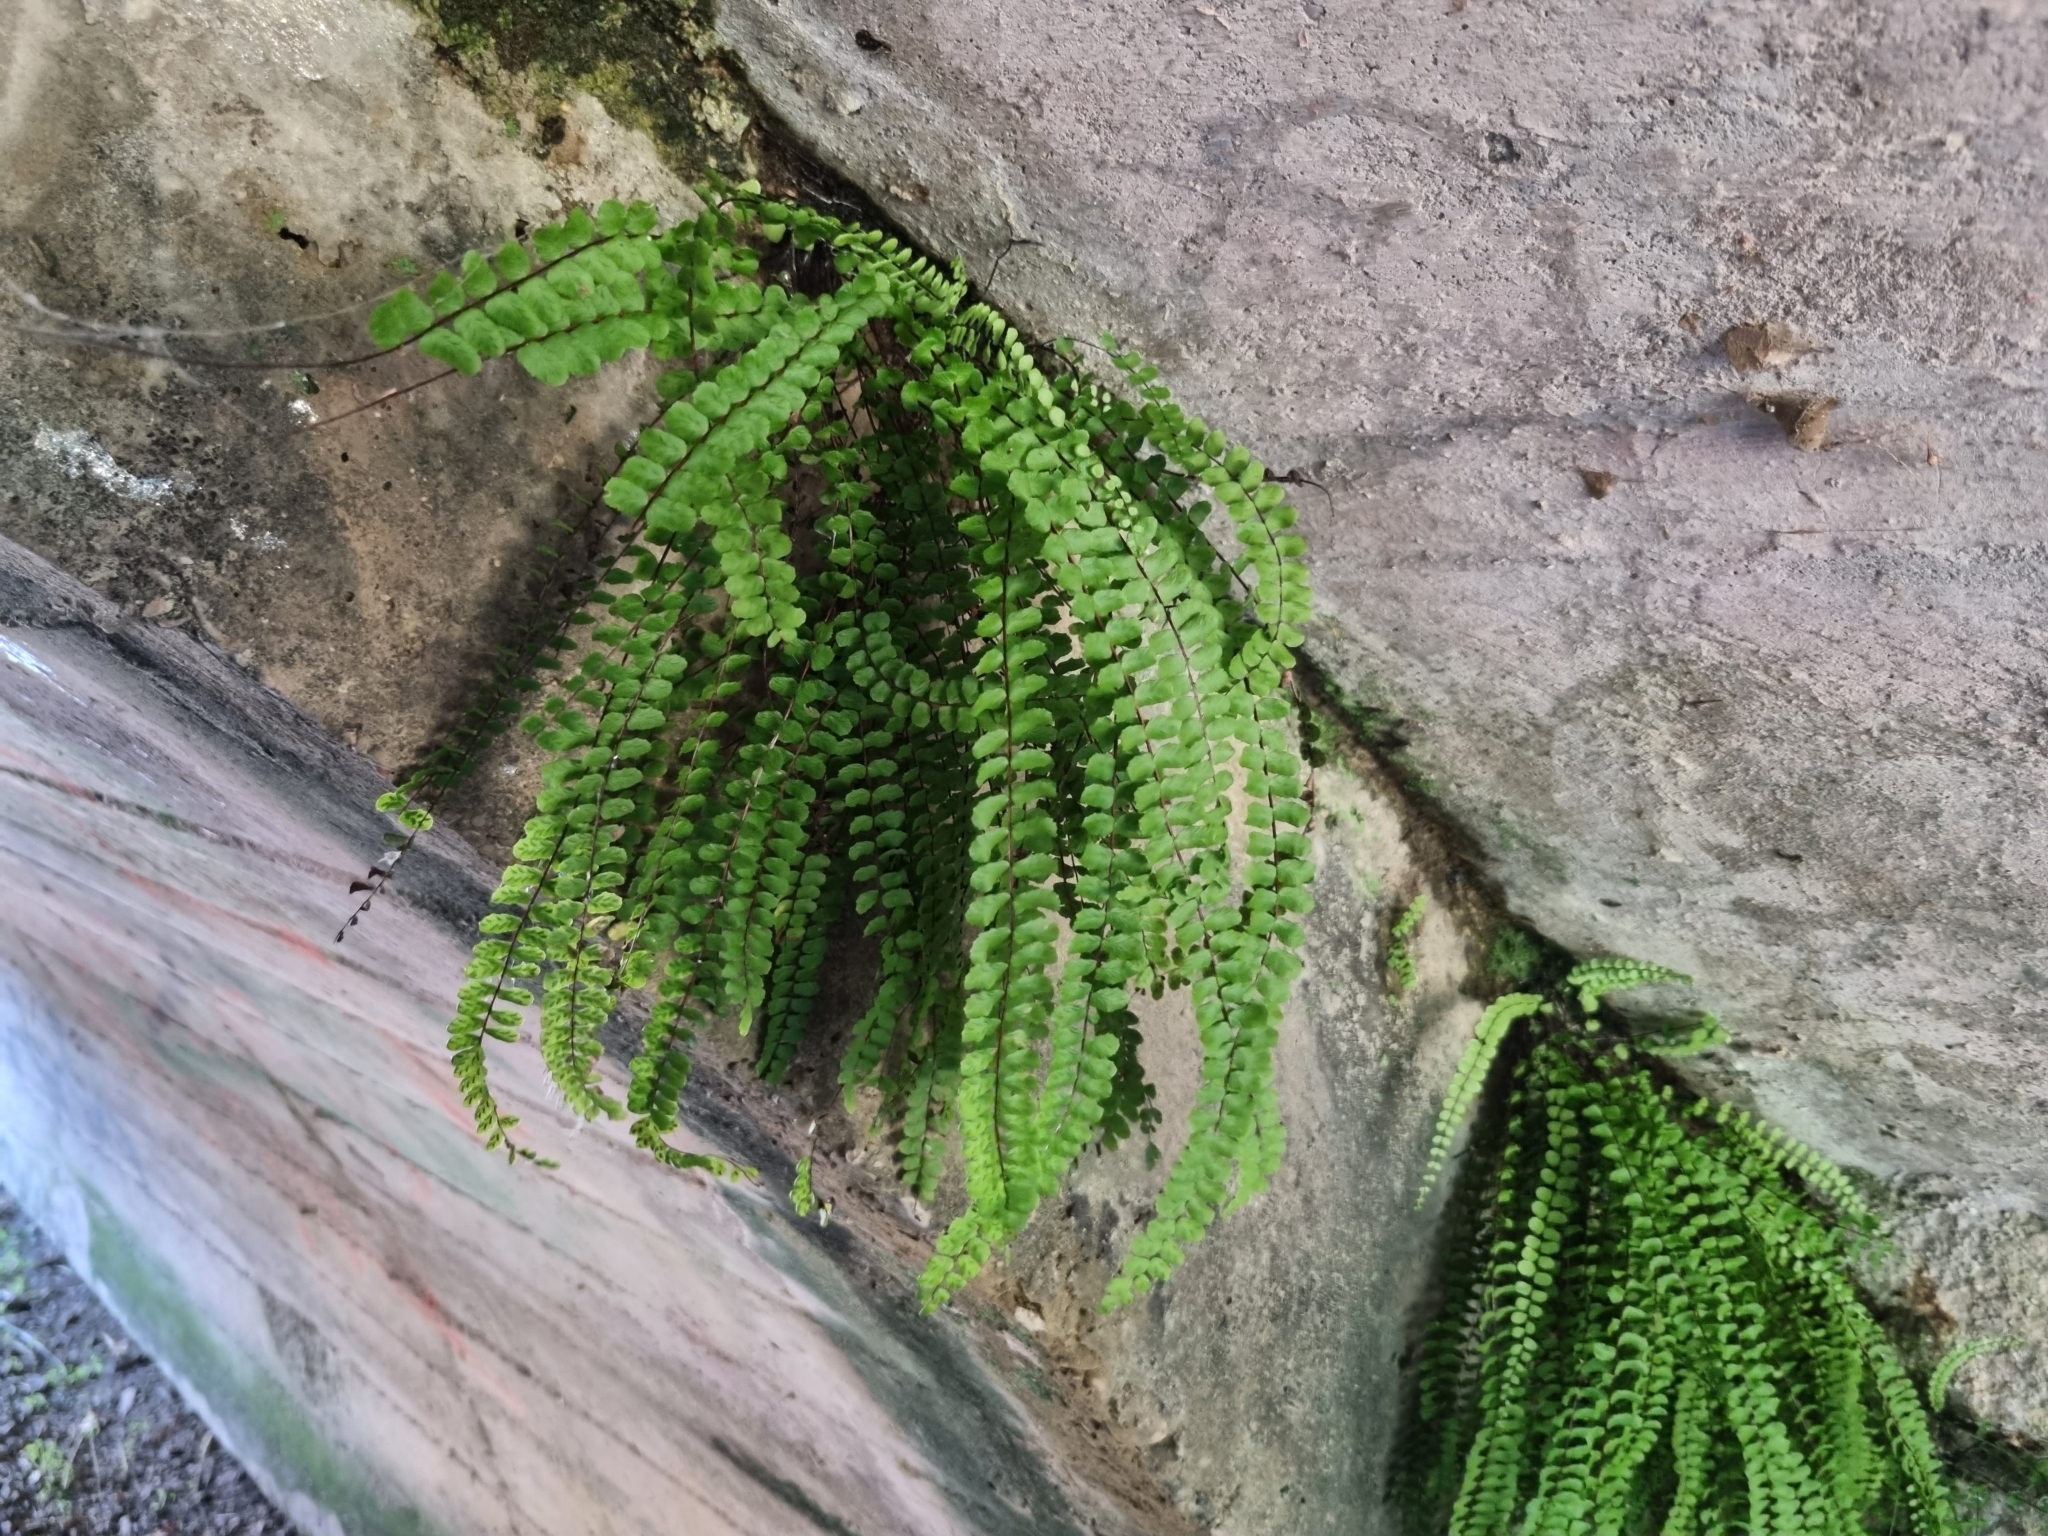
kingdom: Plantae
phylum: Tracheophyta
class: Polypodiopsida
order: Polypodiales
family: Aspleniaceae
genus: Asplenium
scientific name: Asplenium trichomanes
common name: Maidenhair spleenwort
